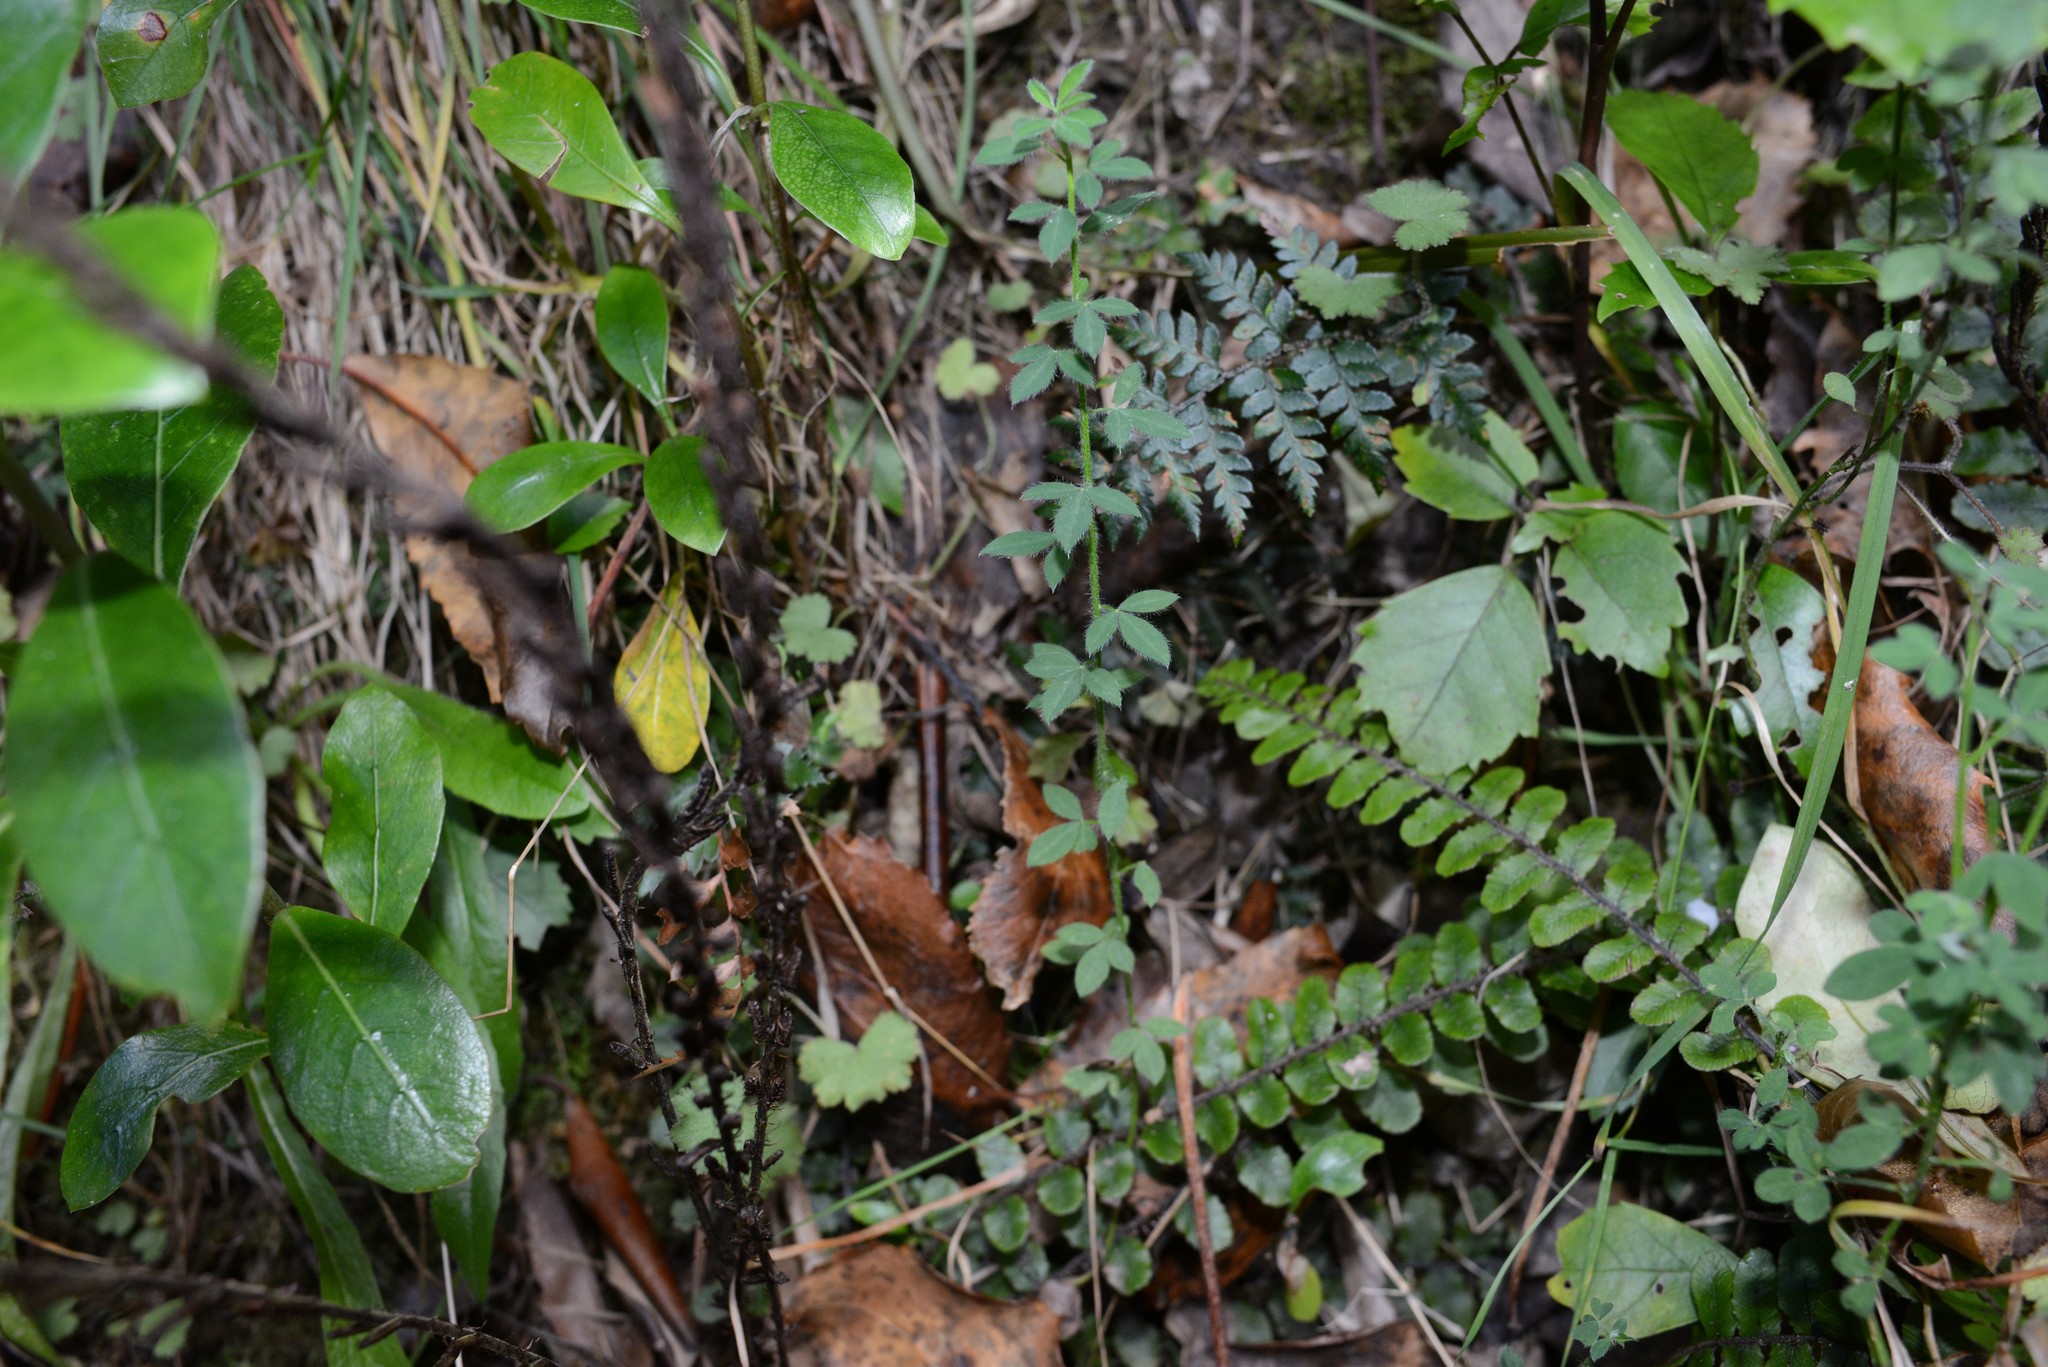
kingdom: Plantae
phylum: Tracheophyta
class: Magnoliopsida
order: Fabales
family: Fabaceae
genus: Cytisus
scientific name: Cytisus scoparius
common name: Scotch broom
